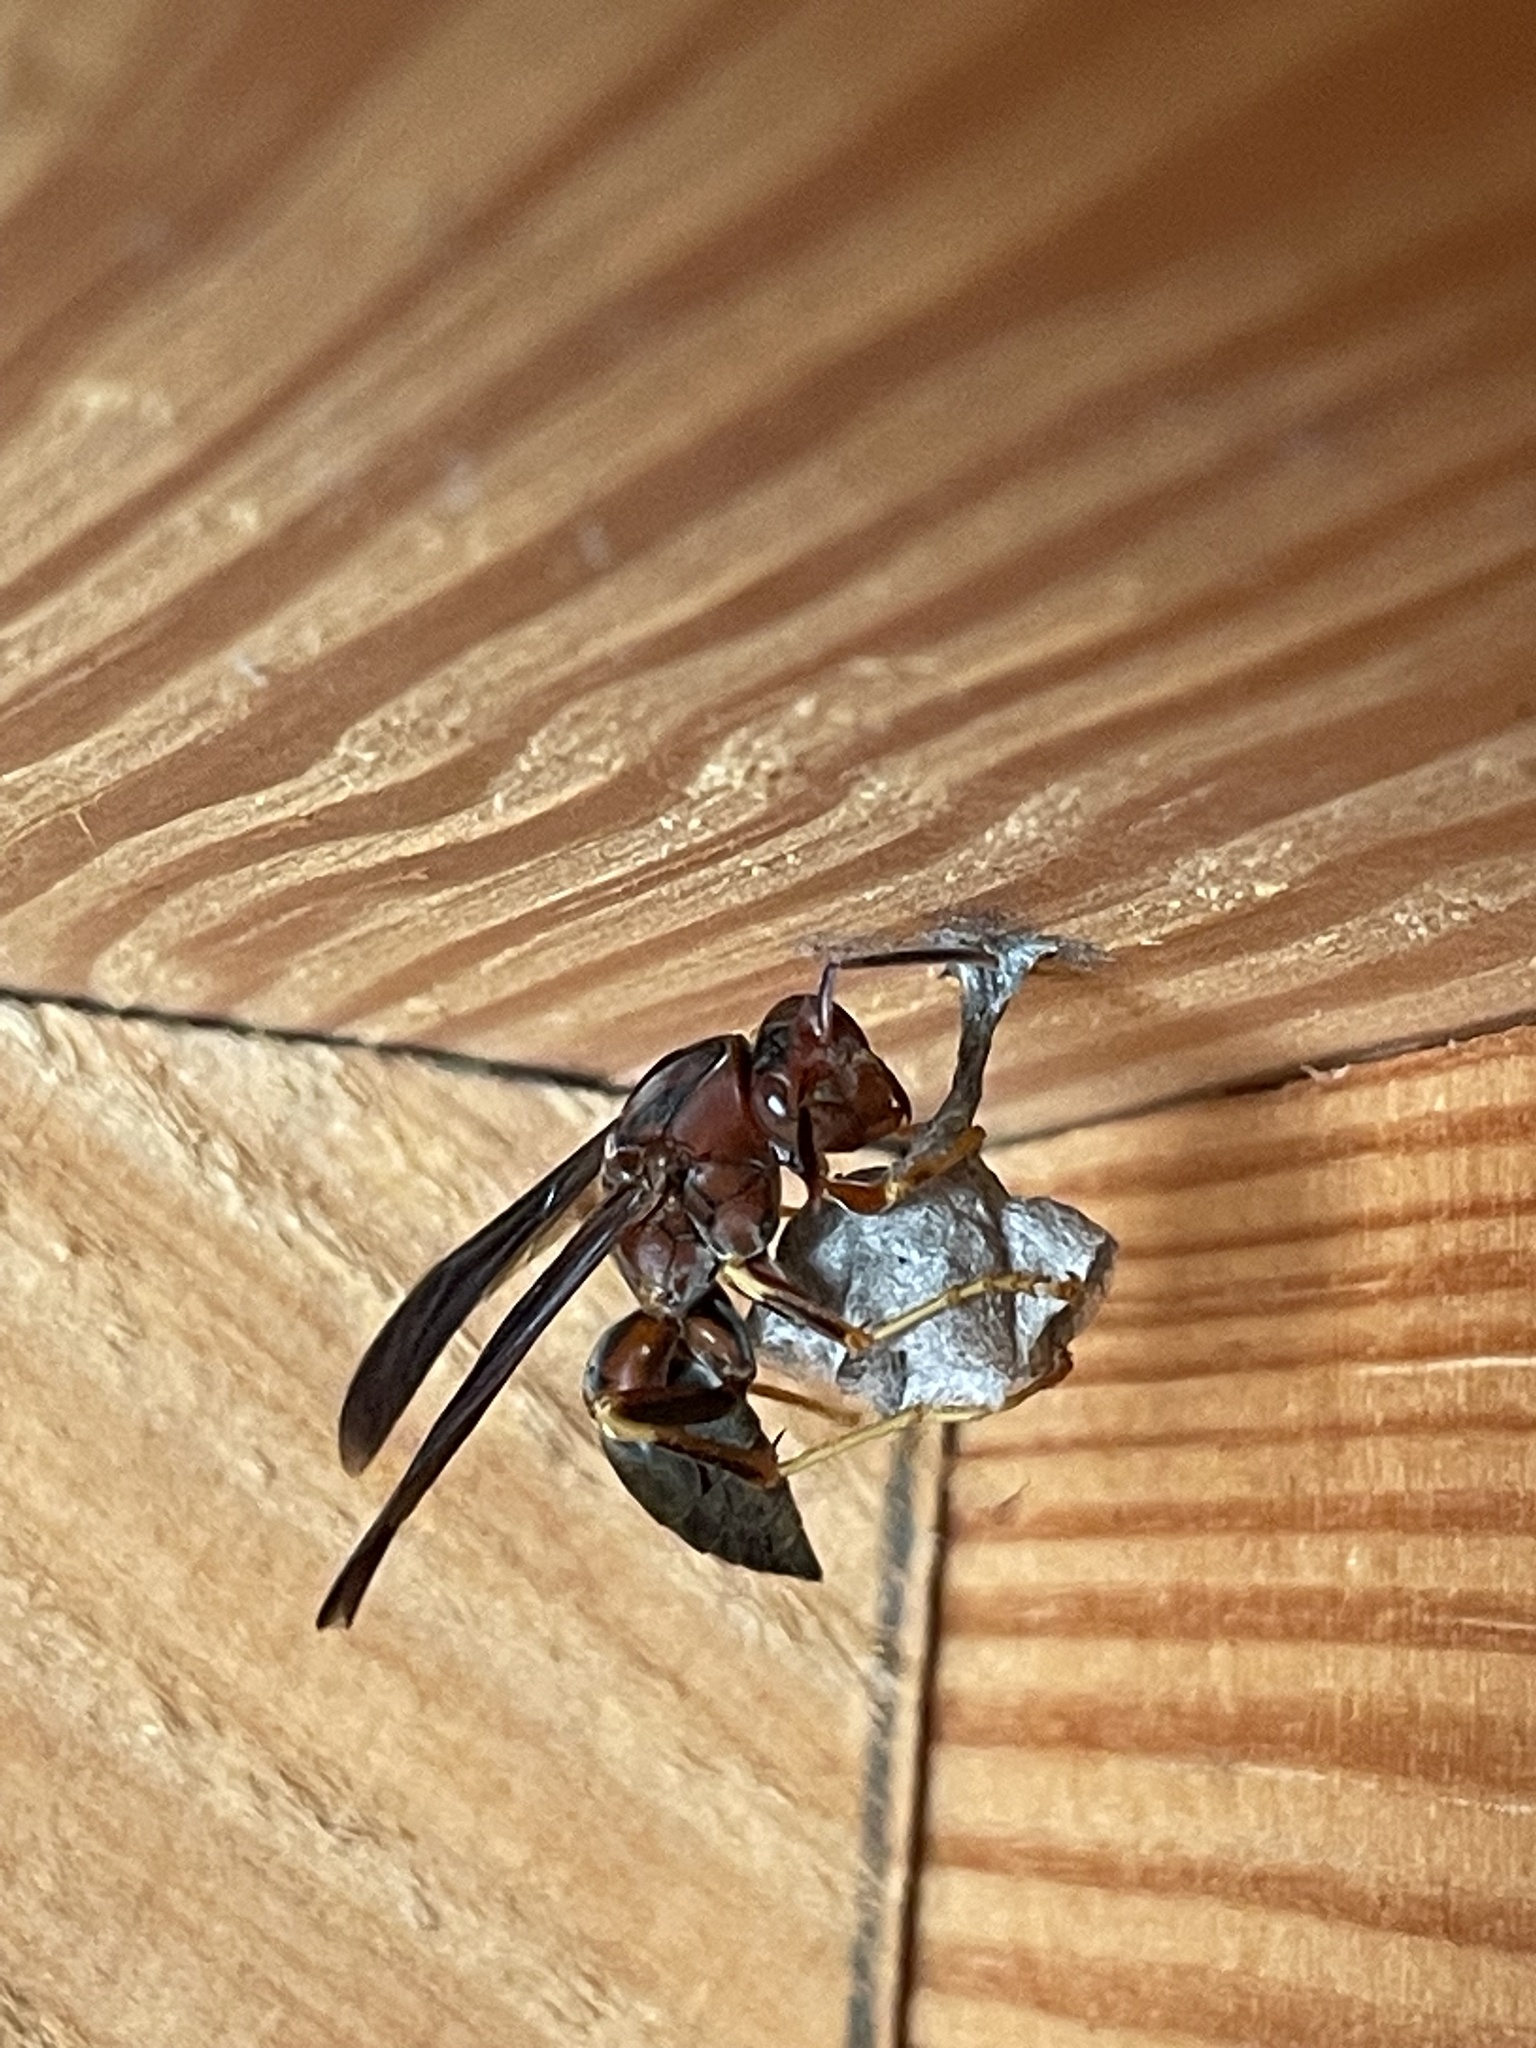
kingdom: Animalia
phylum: Arthropoda
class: Insecta
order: Hymenoptera
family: Eumenidae
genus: Polistes
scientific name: Polistes metricus
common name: Metric paper wasp
